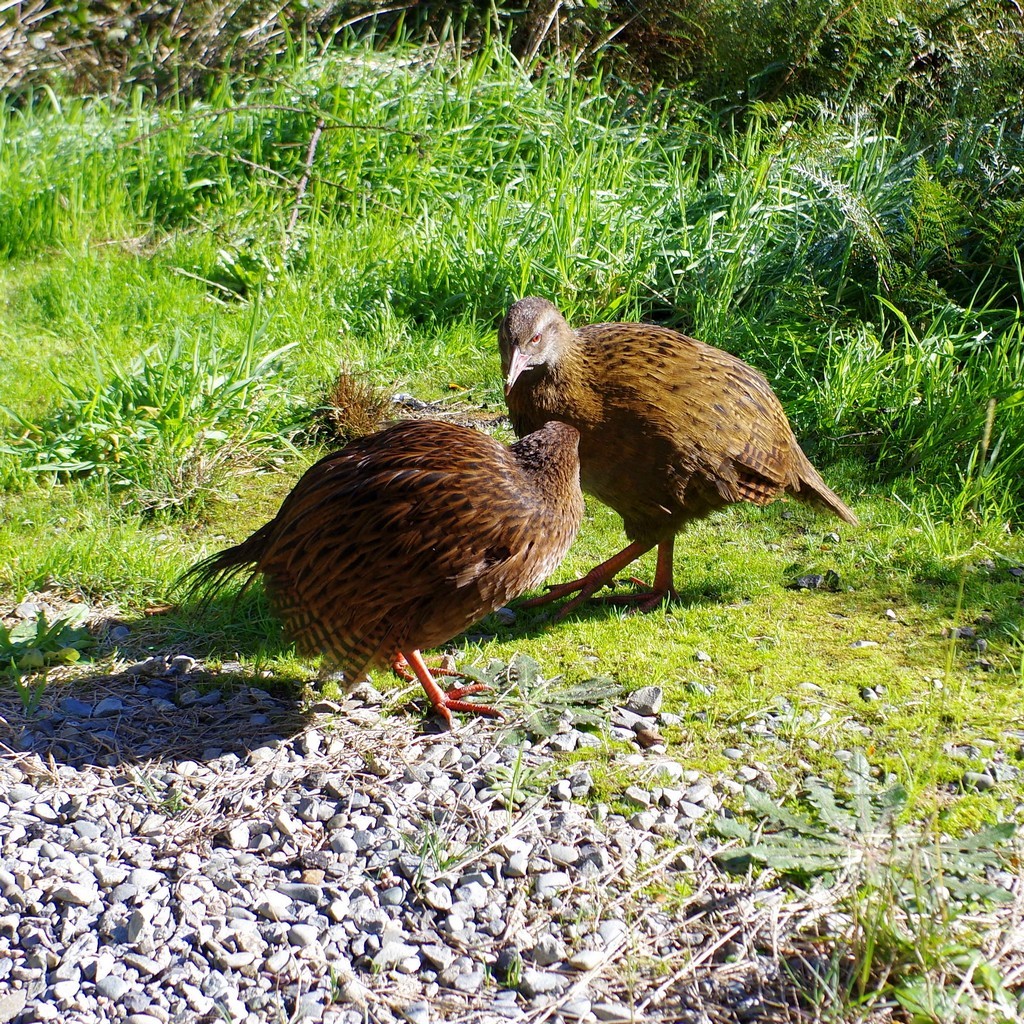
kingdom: Animalia
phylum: Chordata
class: Aves
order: Gruiformes
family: Rallidae
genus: Gallirallus
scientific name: Gallirallus australis
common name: Weka
